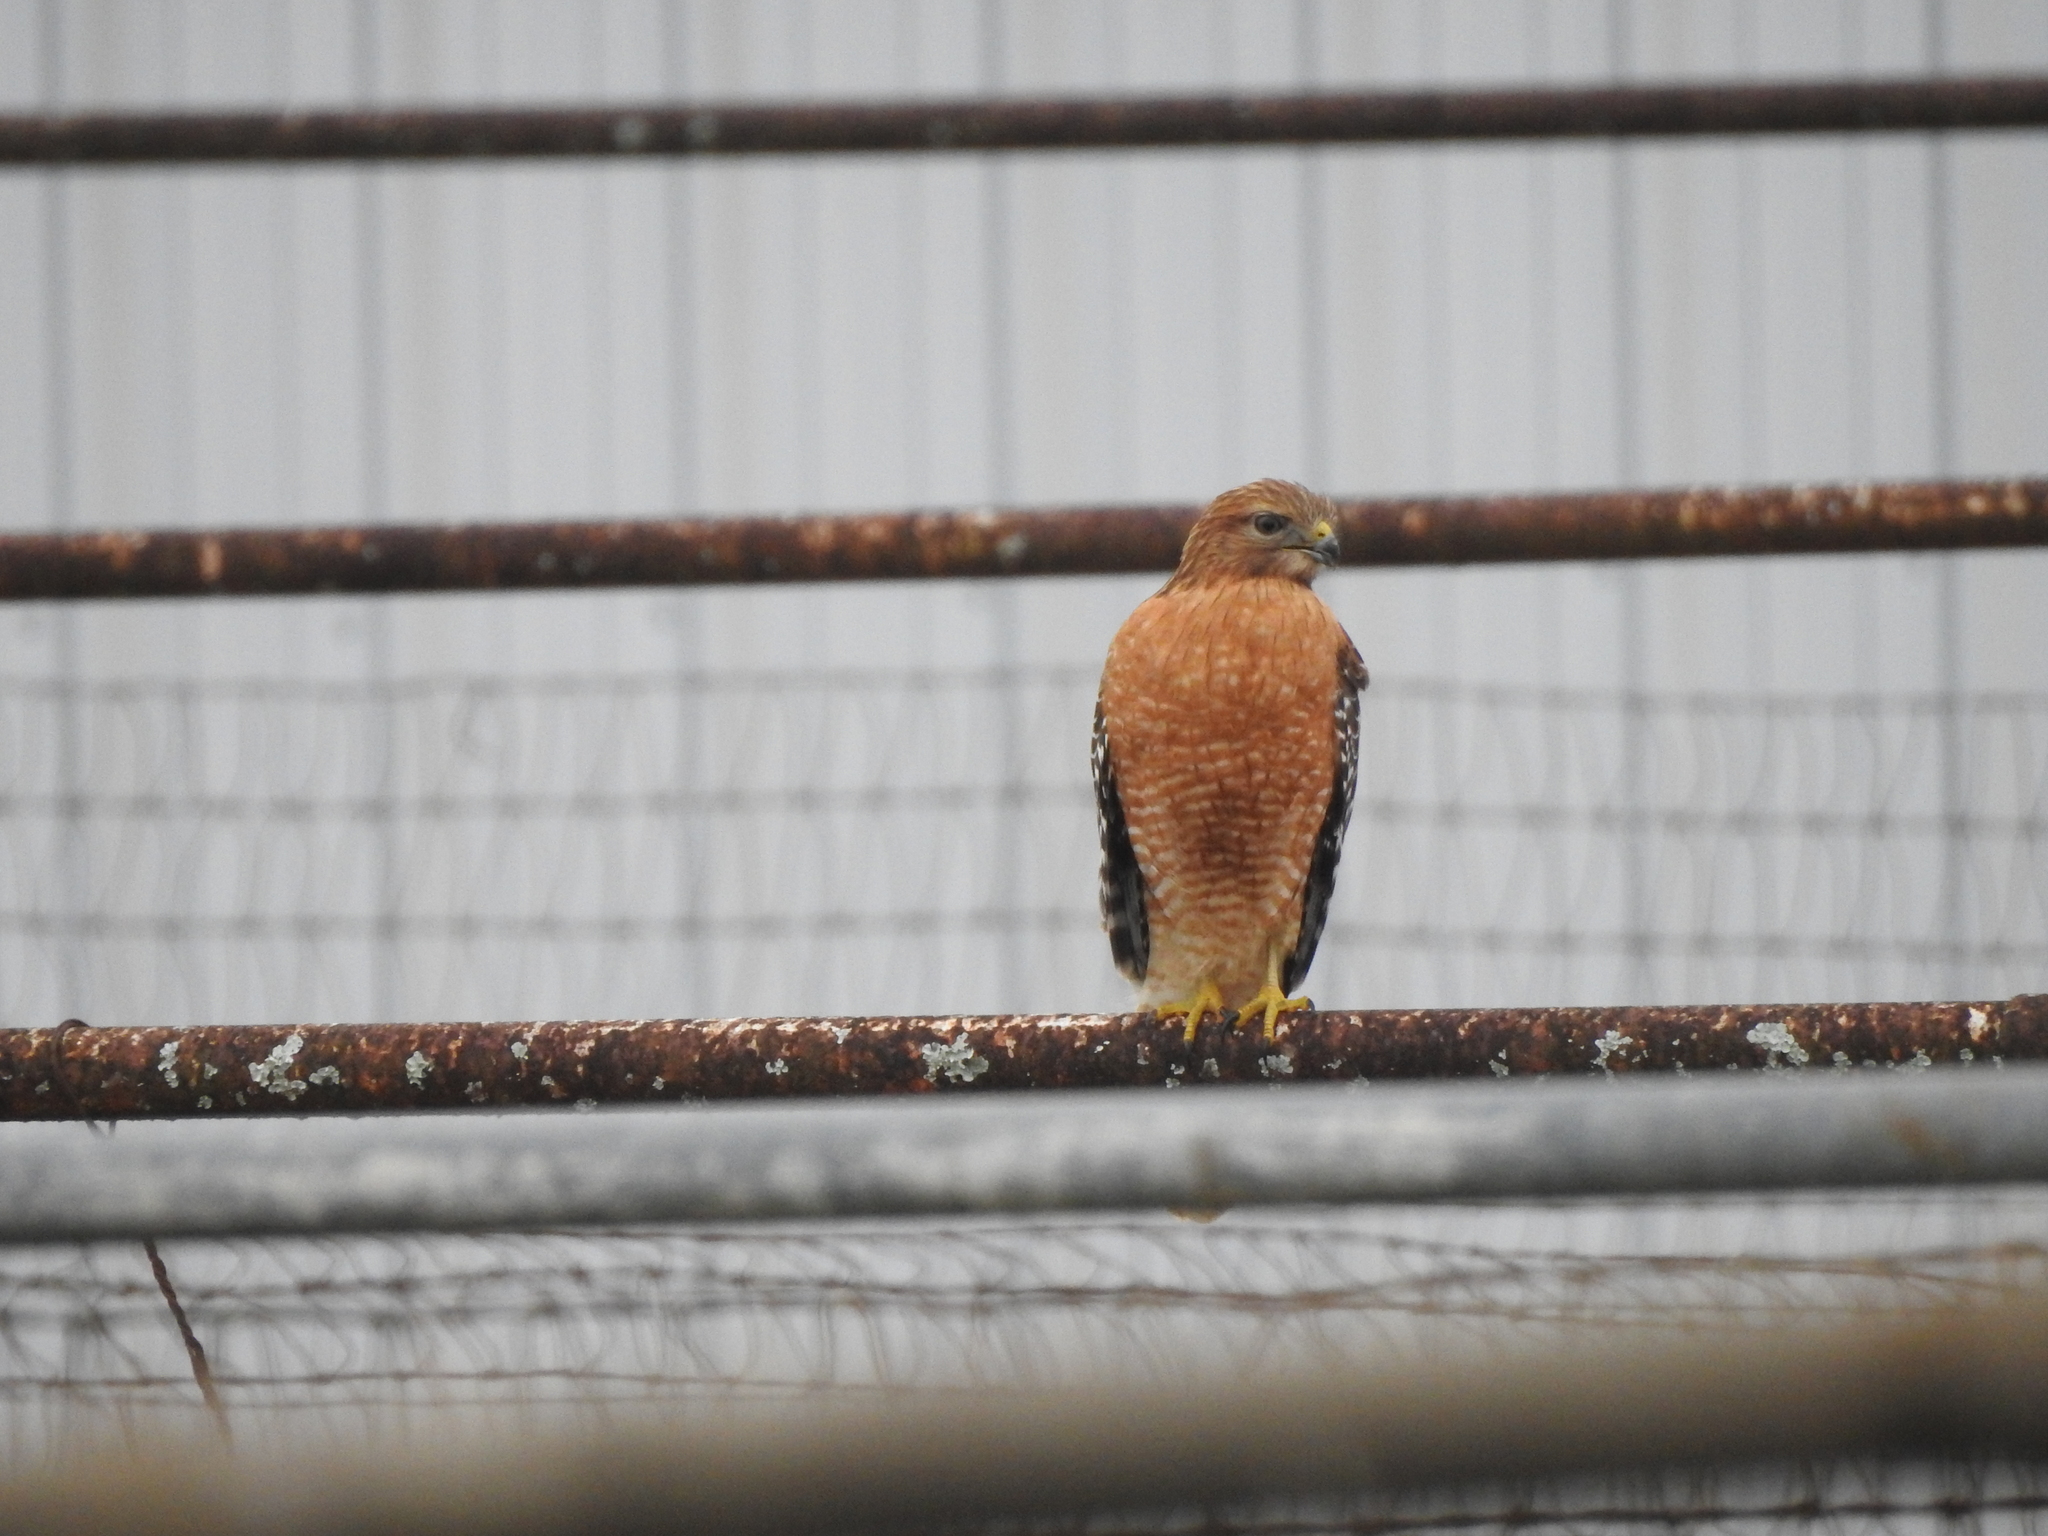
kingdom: Animalia
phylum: Chordata
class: Aves
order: Accipitriformes
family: Accipitridae
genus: Buteo
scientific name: Buteo lineatus
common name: Red-shouldered hawk
